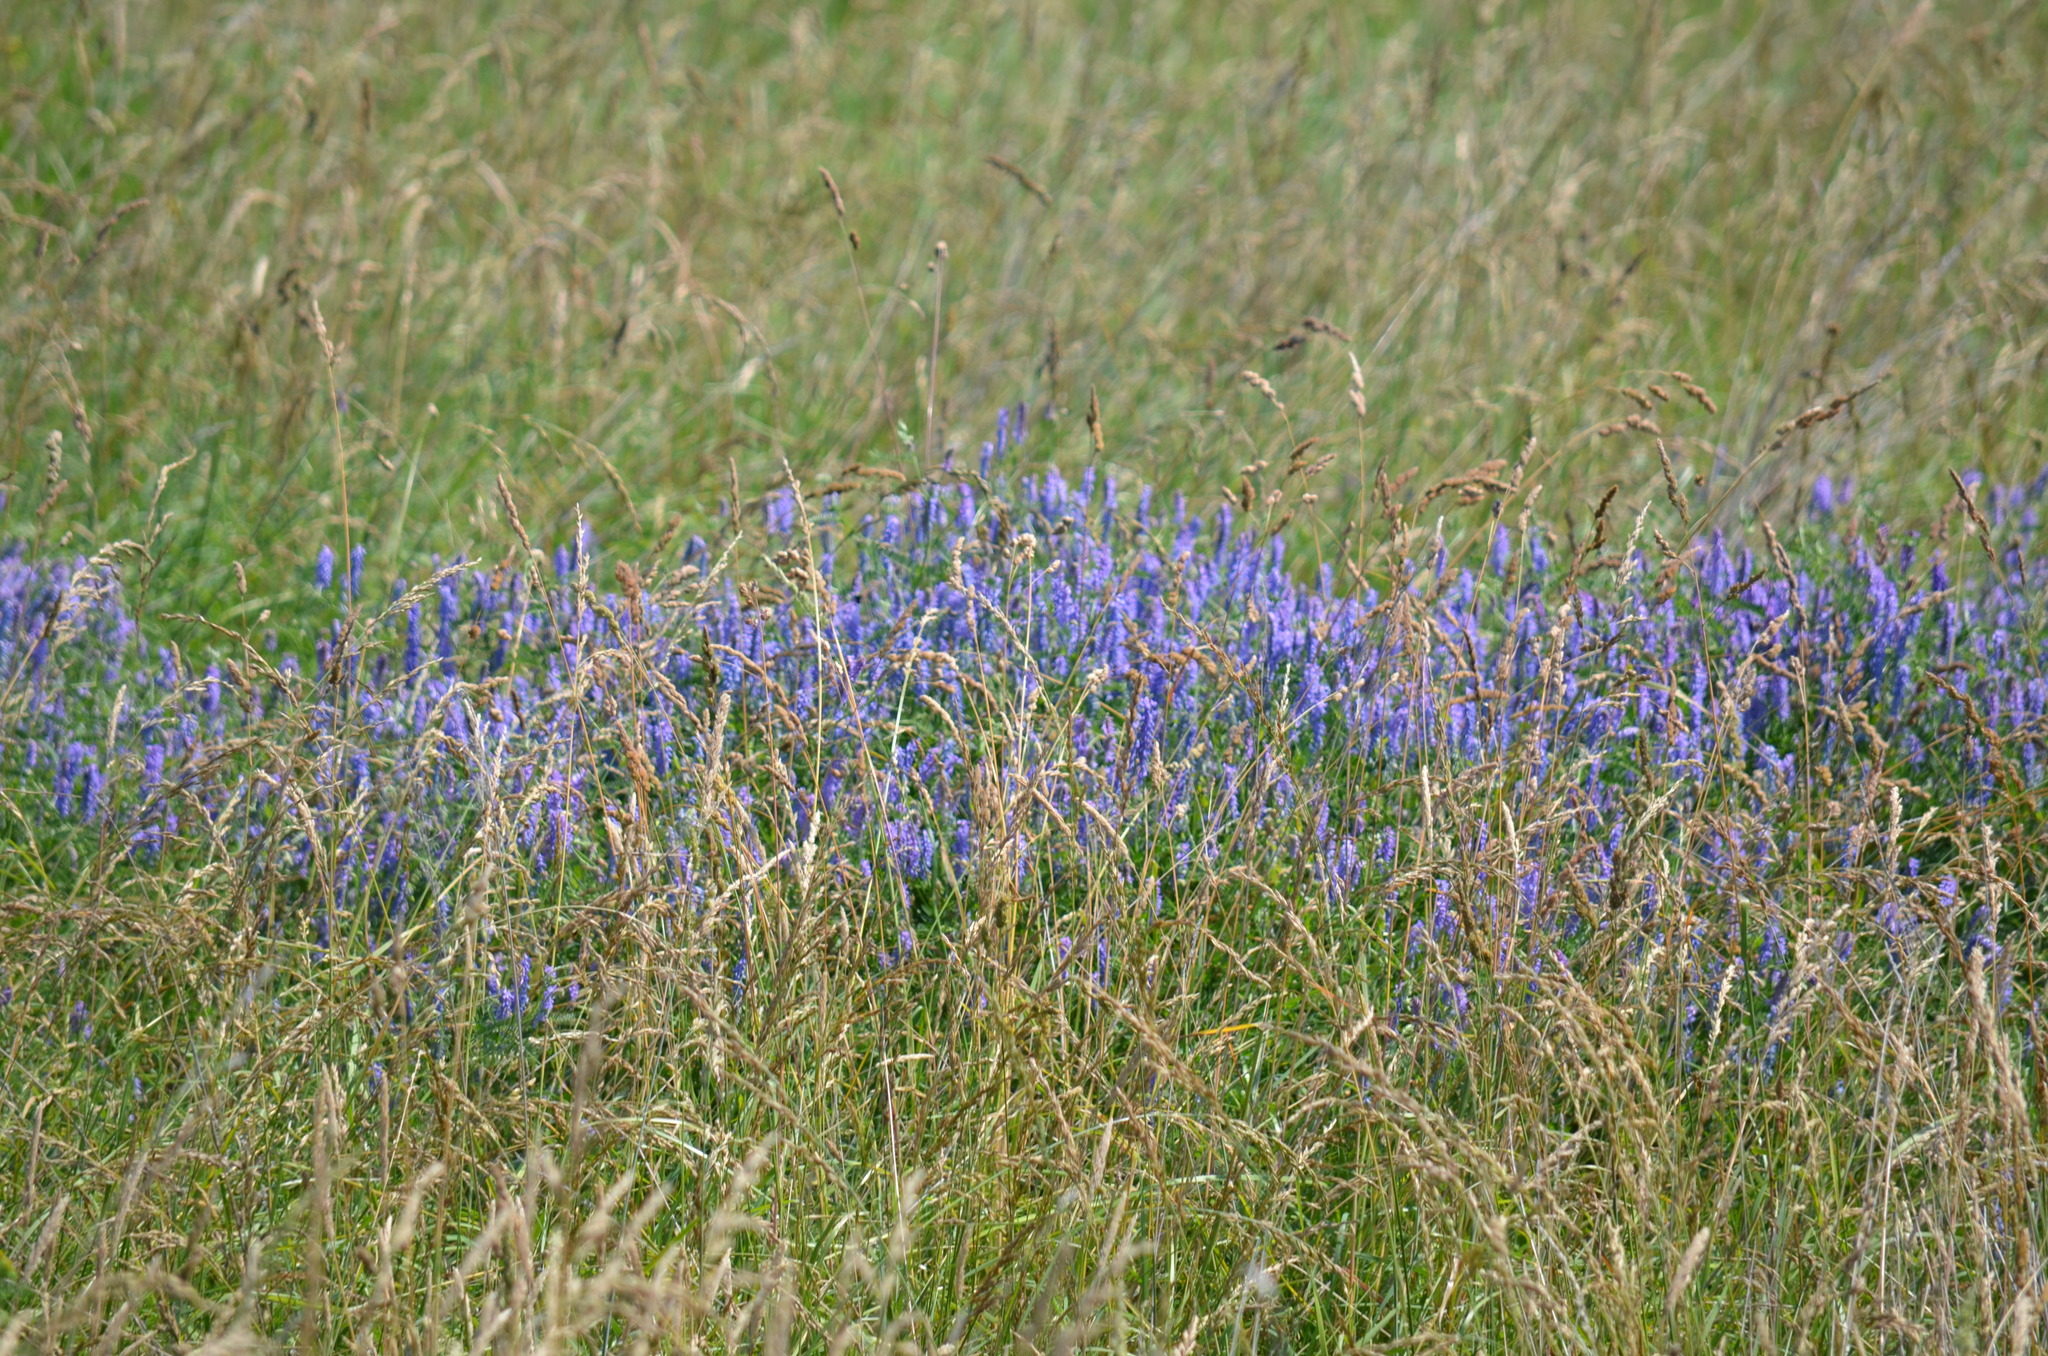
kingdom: Plantae
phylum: Tracheophyta
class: Magnoliopsida
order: Fabales
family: Fabaceae
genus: Vicia
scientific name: Vicia cracca
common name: Bird vetch
